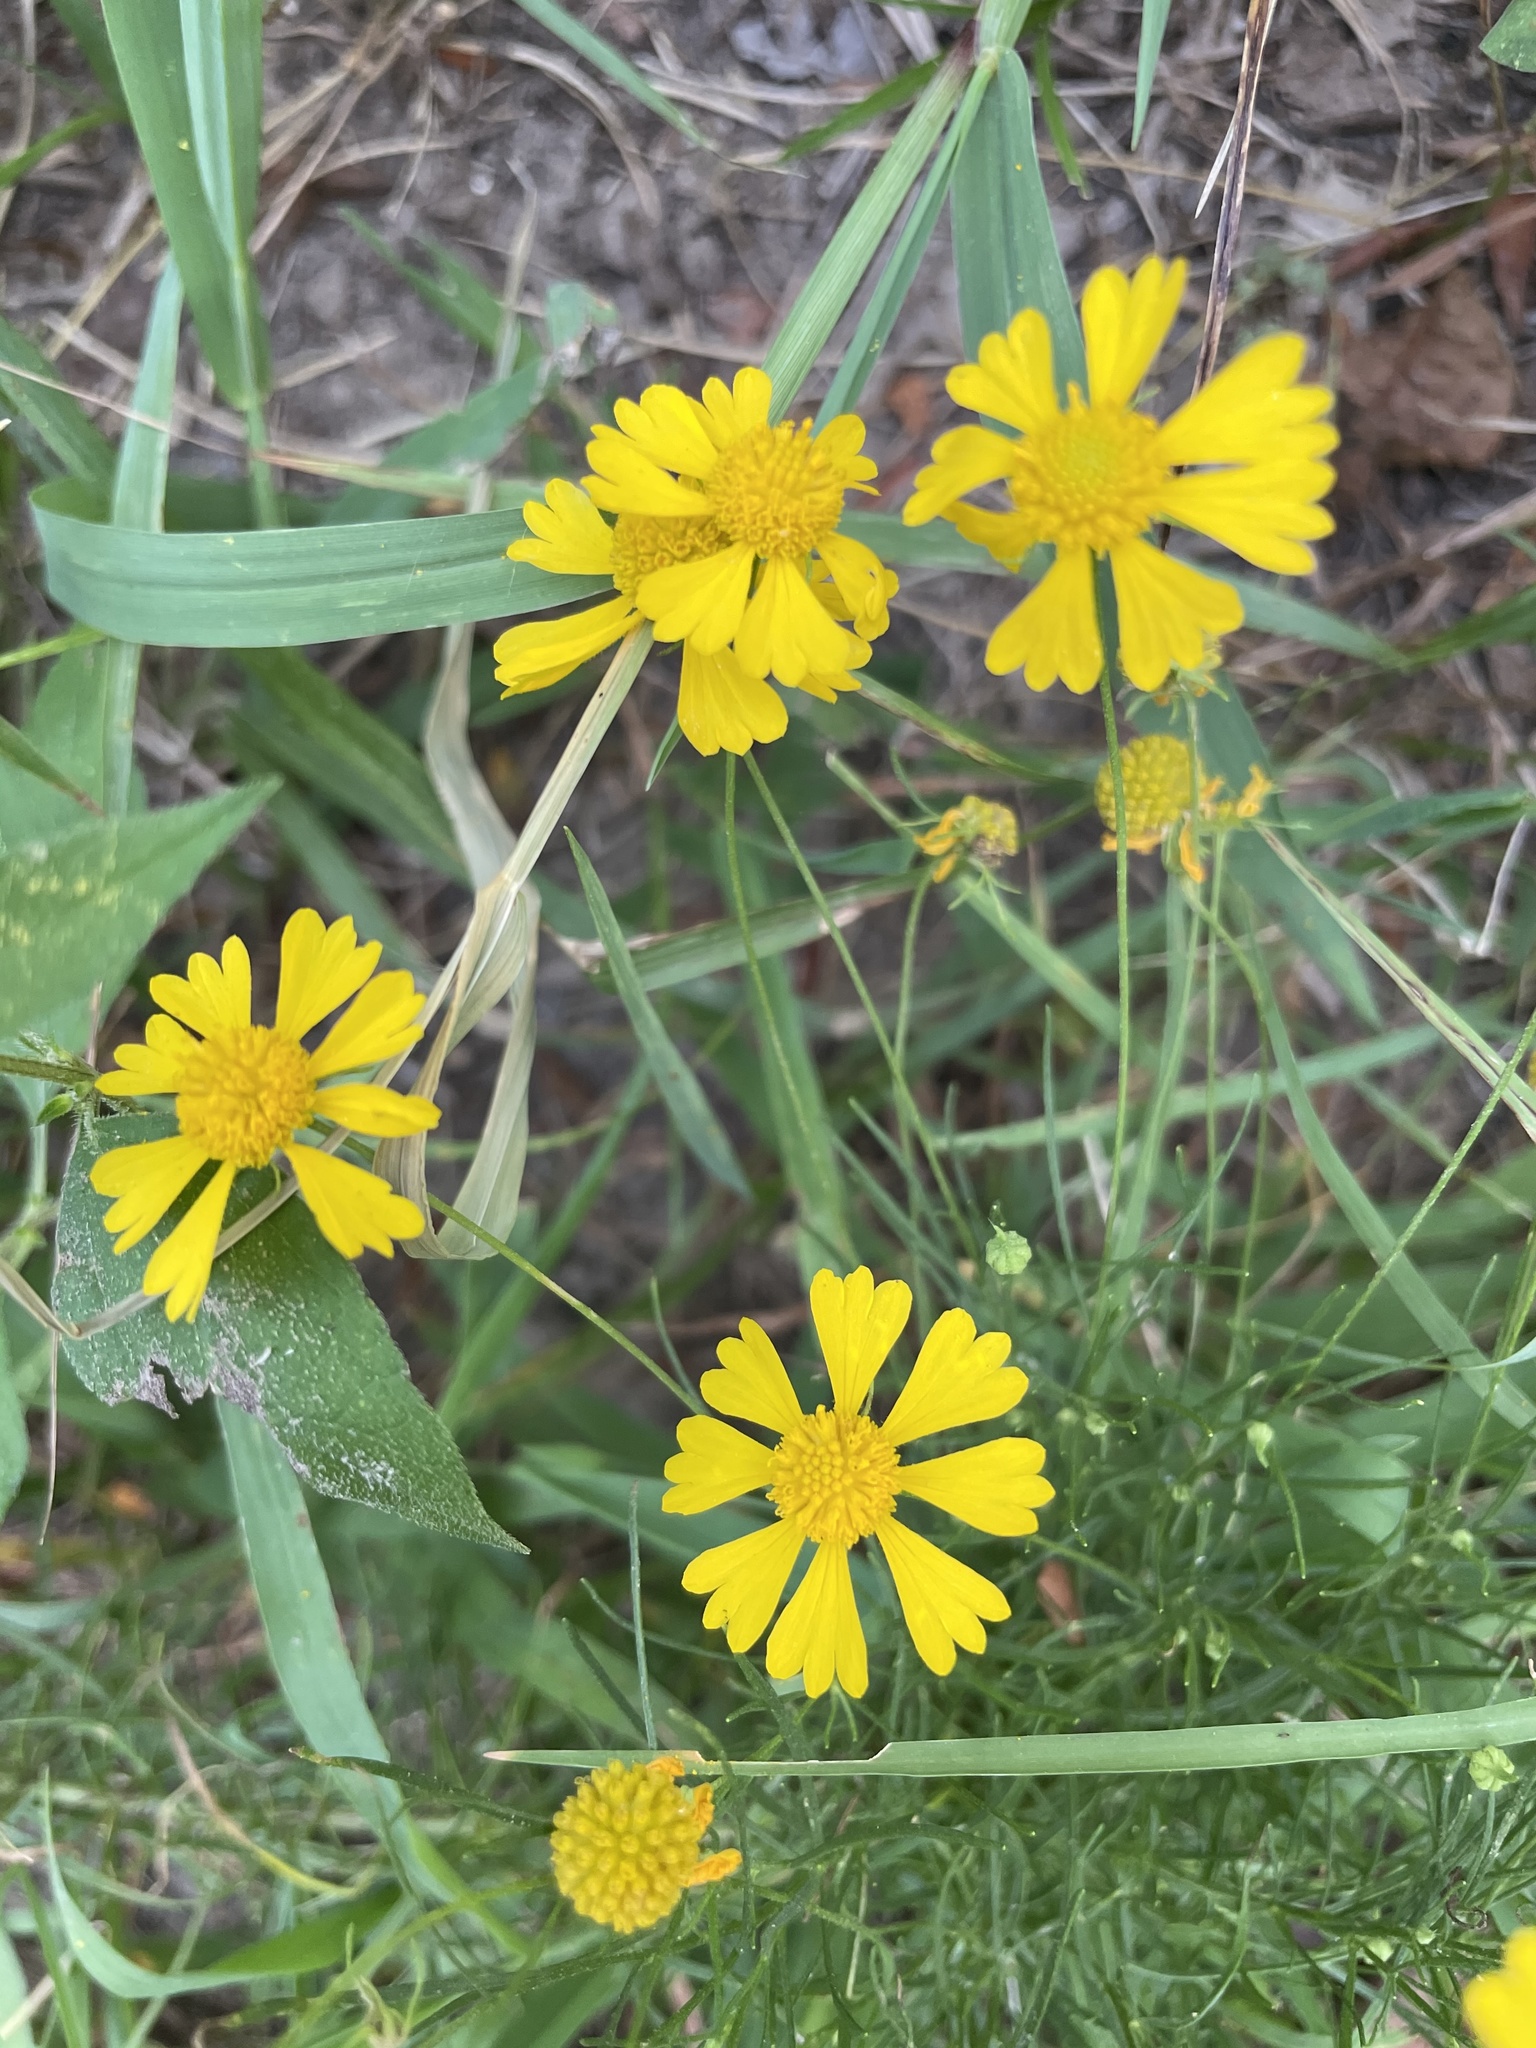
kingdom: Plantae
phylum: Tracheophyta
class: Magnoliopsida
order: Asterales
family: Asteraceae
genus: Helenium
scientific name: Helenium amarum
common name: Bitter sneezeweed
